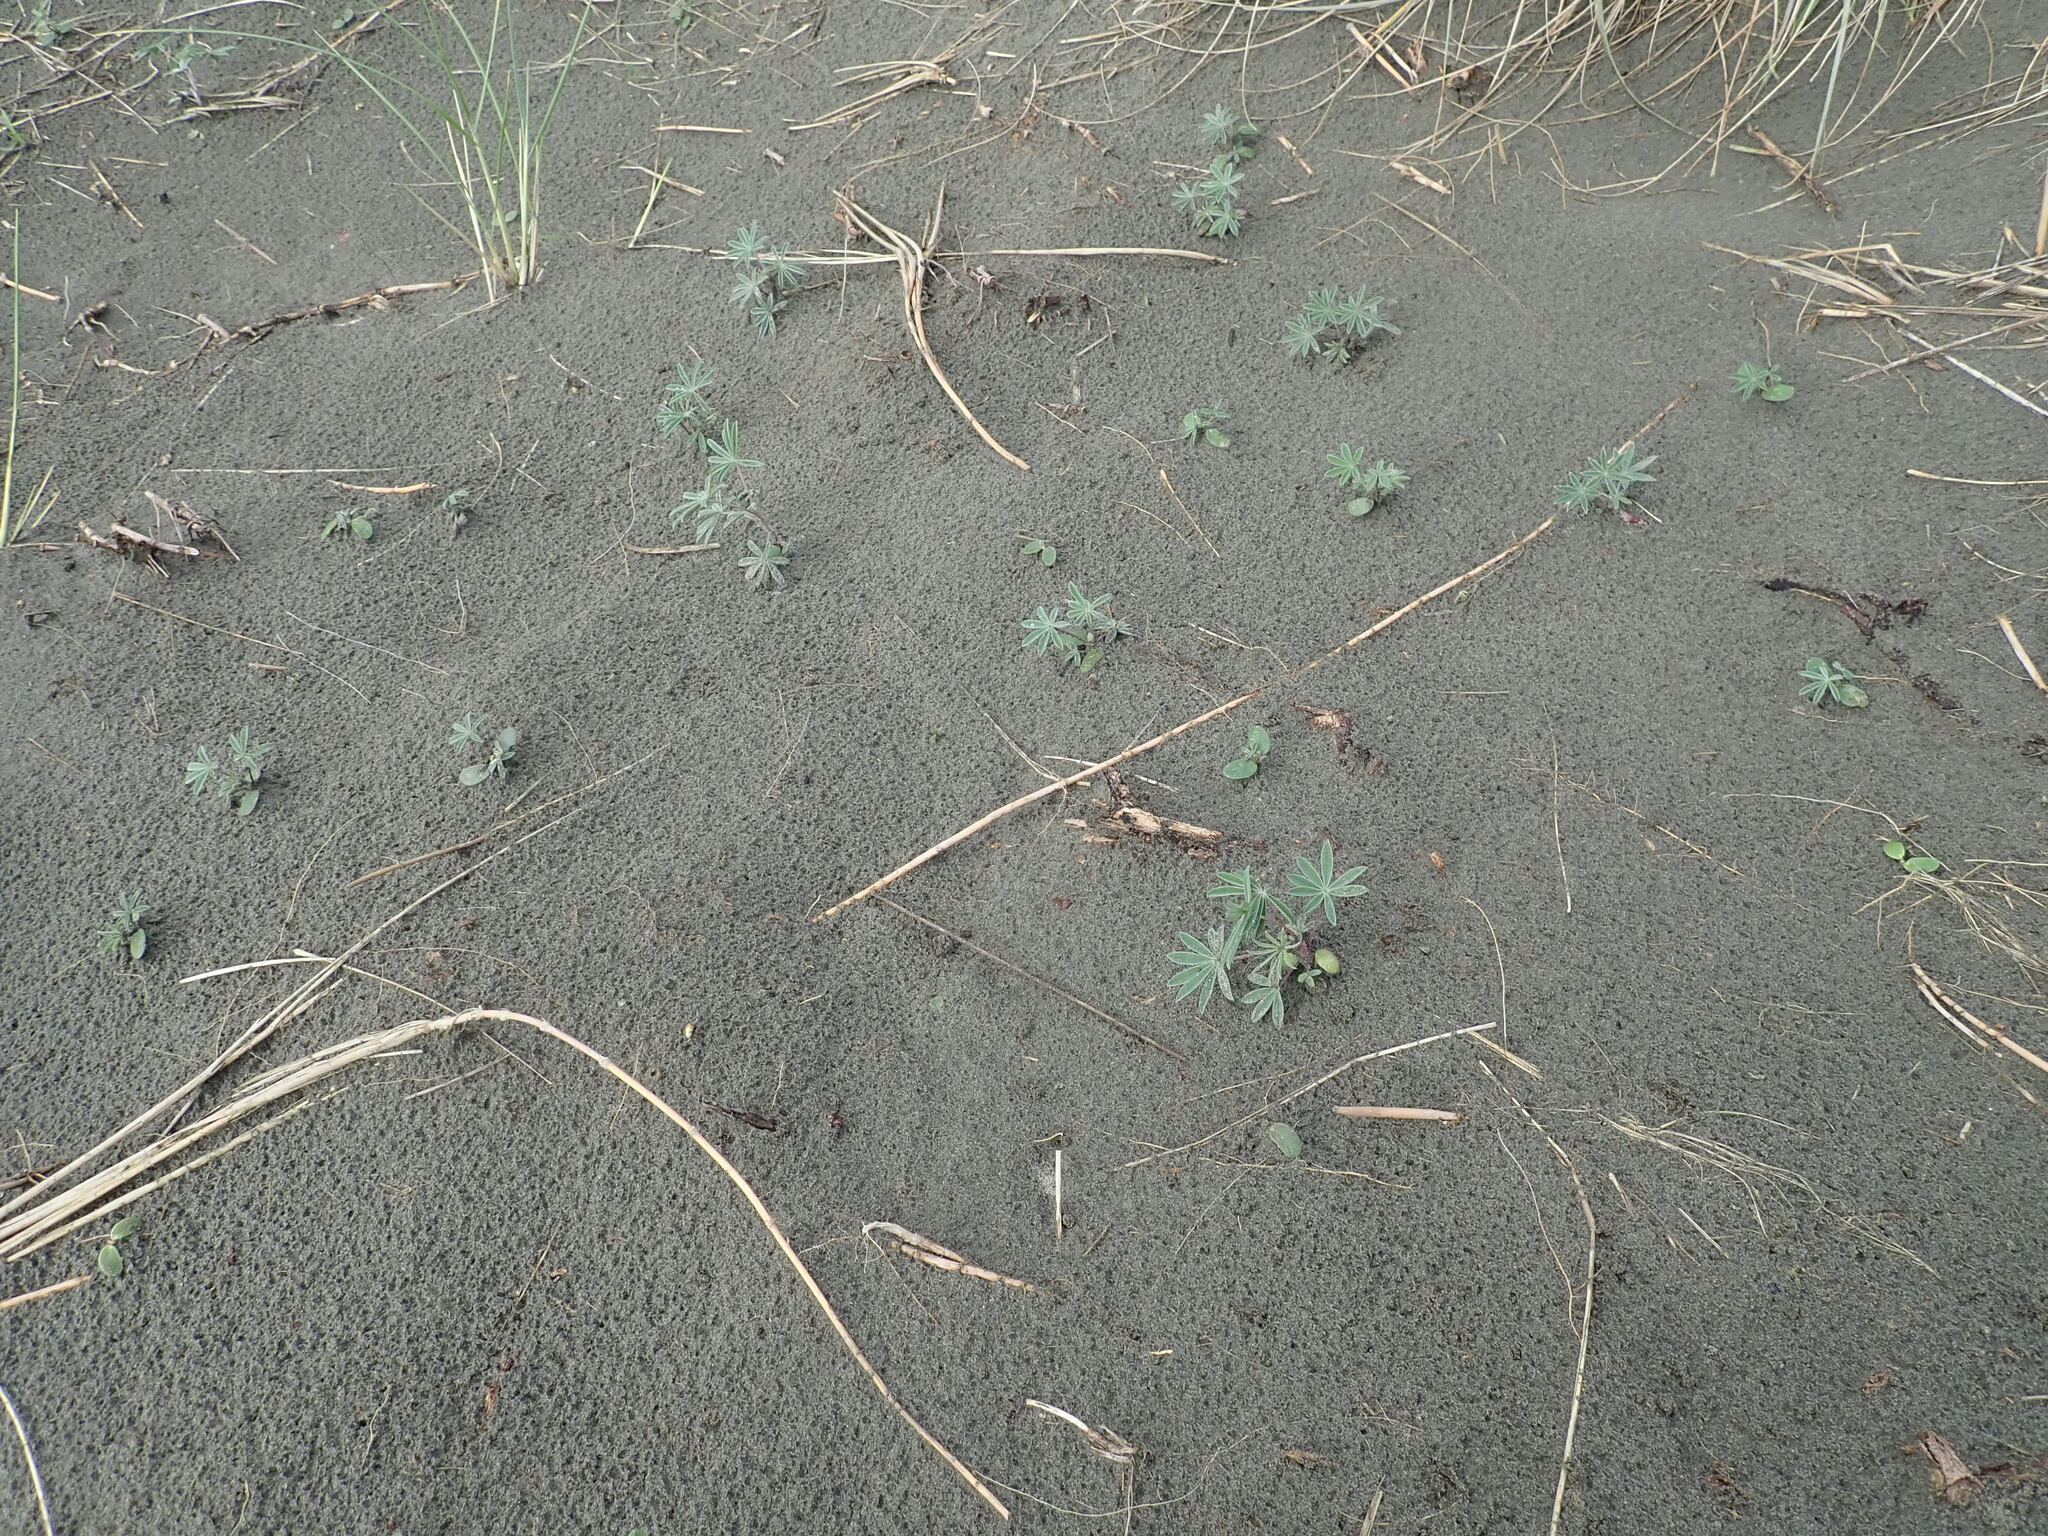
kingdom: Plantae
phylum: Tracheophyta
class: Magnoliopsida
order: Fabales
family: Fabaceae
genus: Lupinus
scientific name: Lupinus arboreus
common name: Yellow bush lupine
